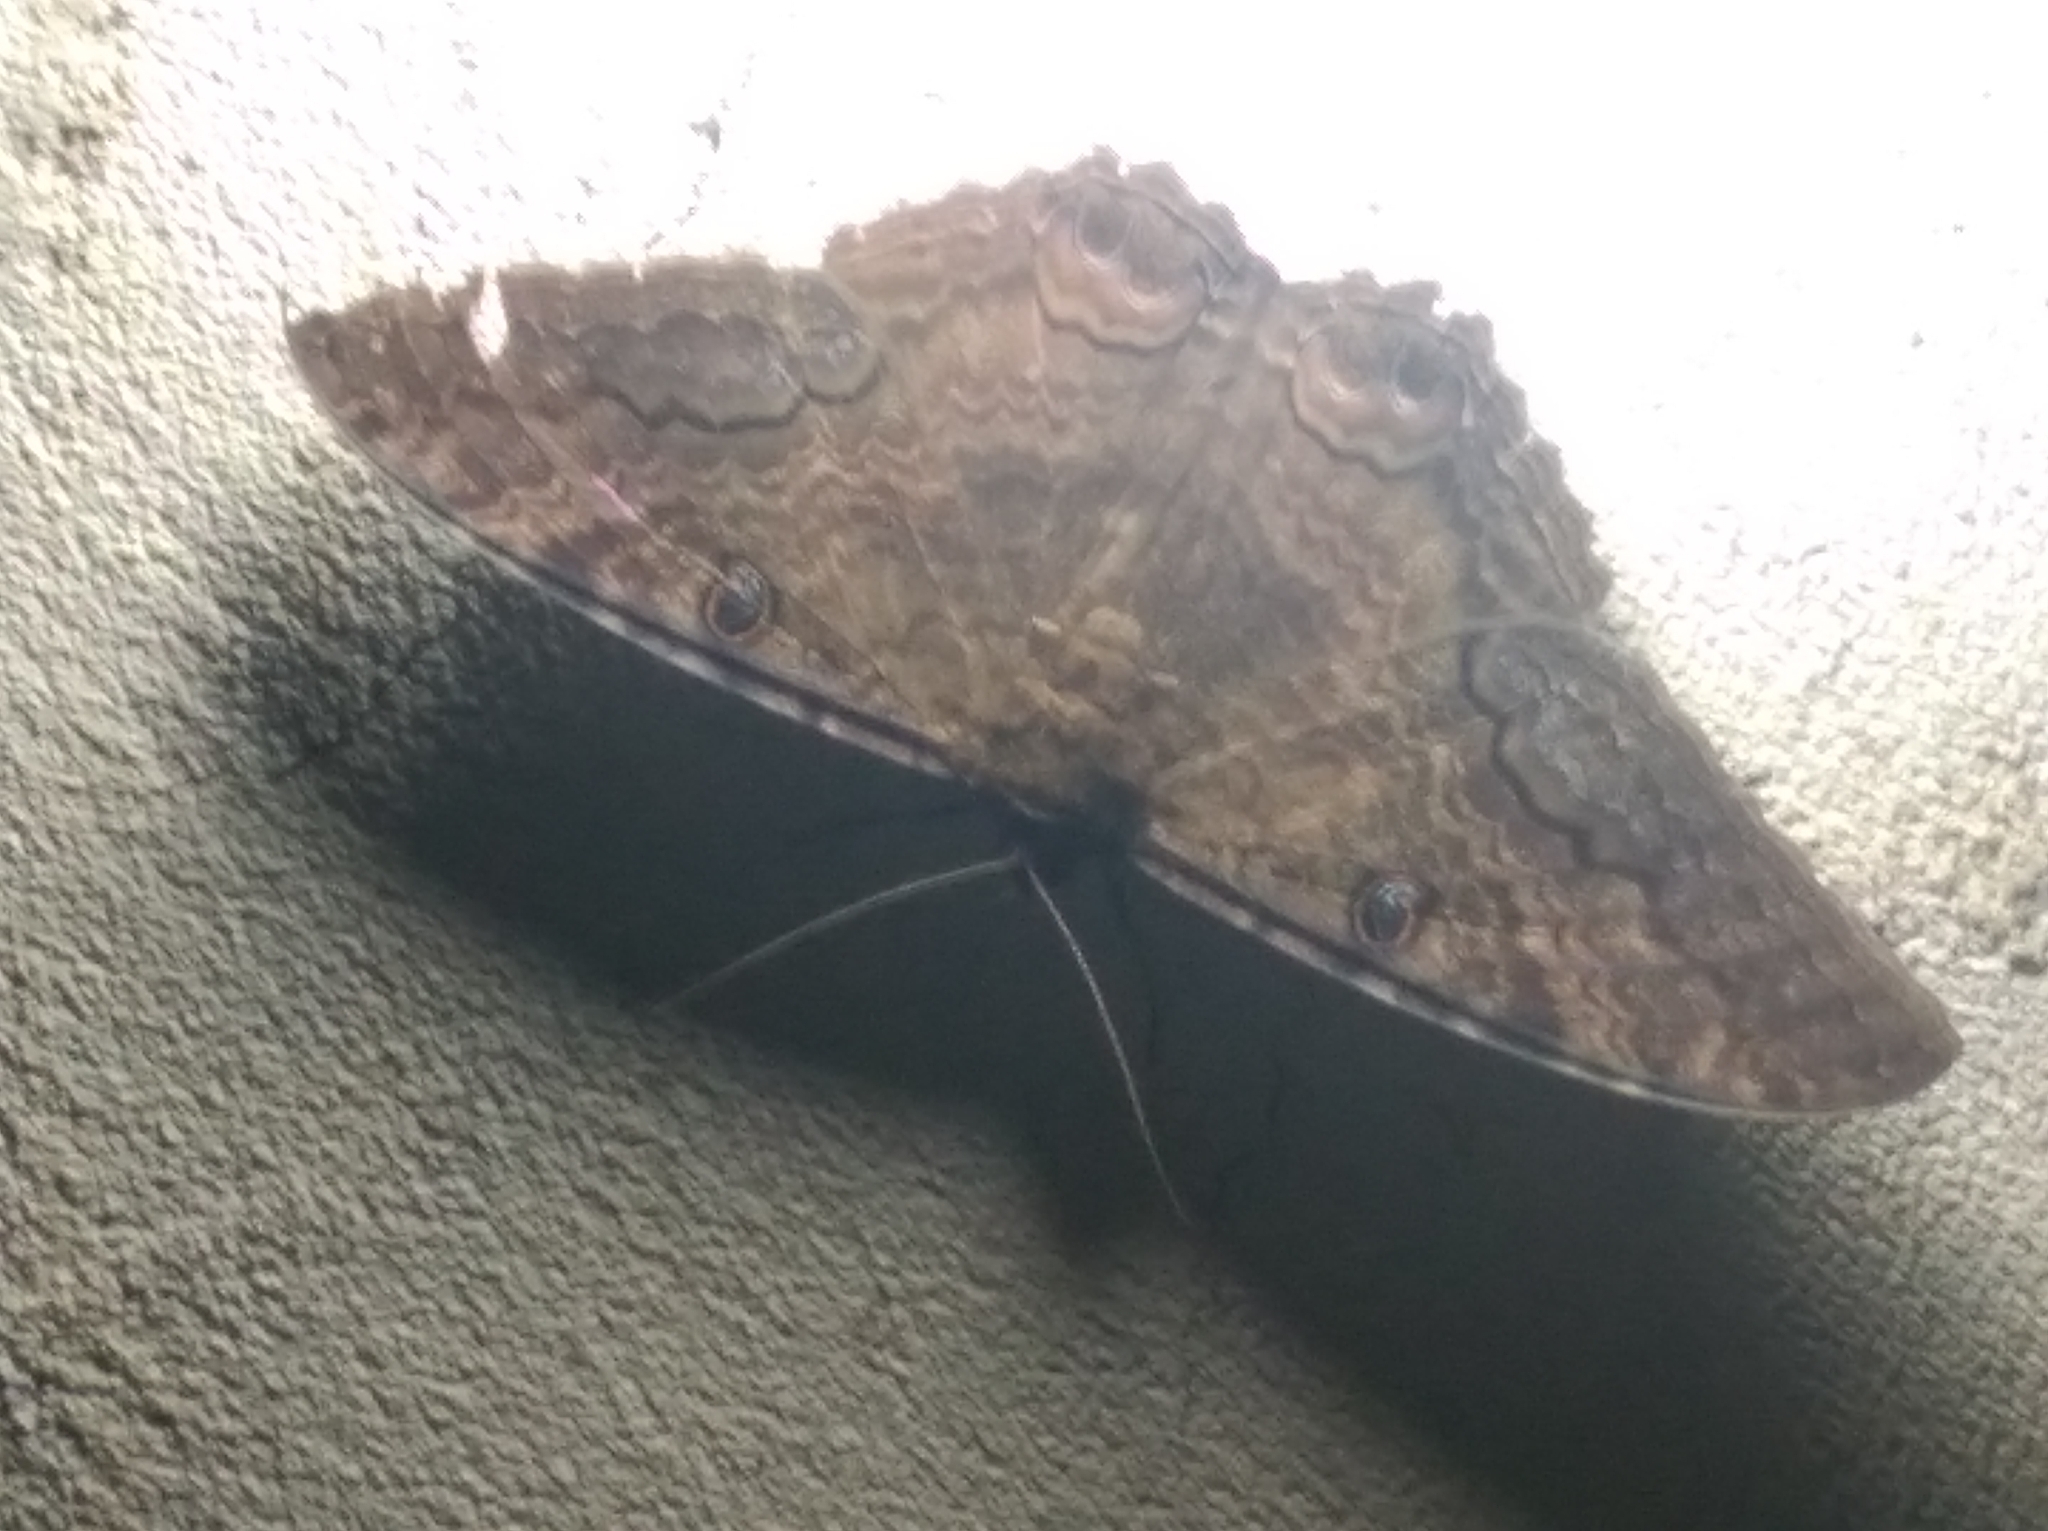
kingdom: Animalia
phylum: Arthropoda
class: Insecta
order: Lepidoptera
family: Erebidae
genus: Ascalapha
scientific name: Ascalapha odorata
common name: Black witch
